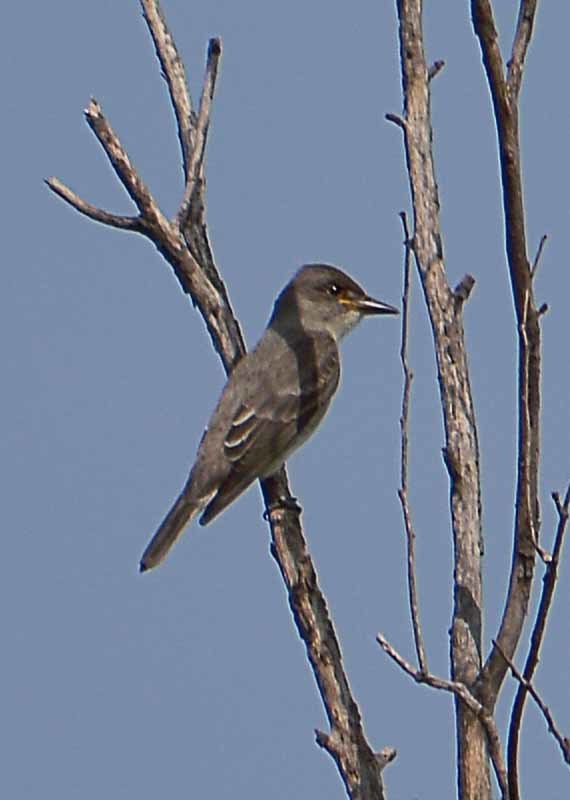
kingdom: Animalia
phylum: Chordata
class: Aves
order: Passeriformes
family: Tyrannidae
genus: Contopus
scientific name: Contopus cooperi
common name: Olive-sided flycatcher
